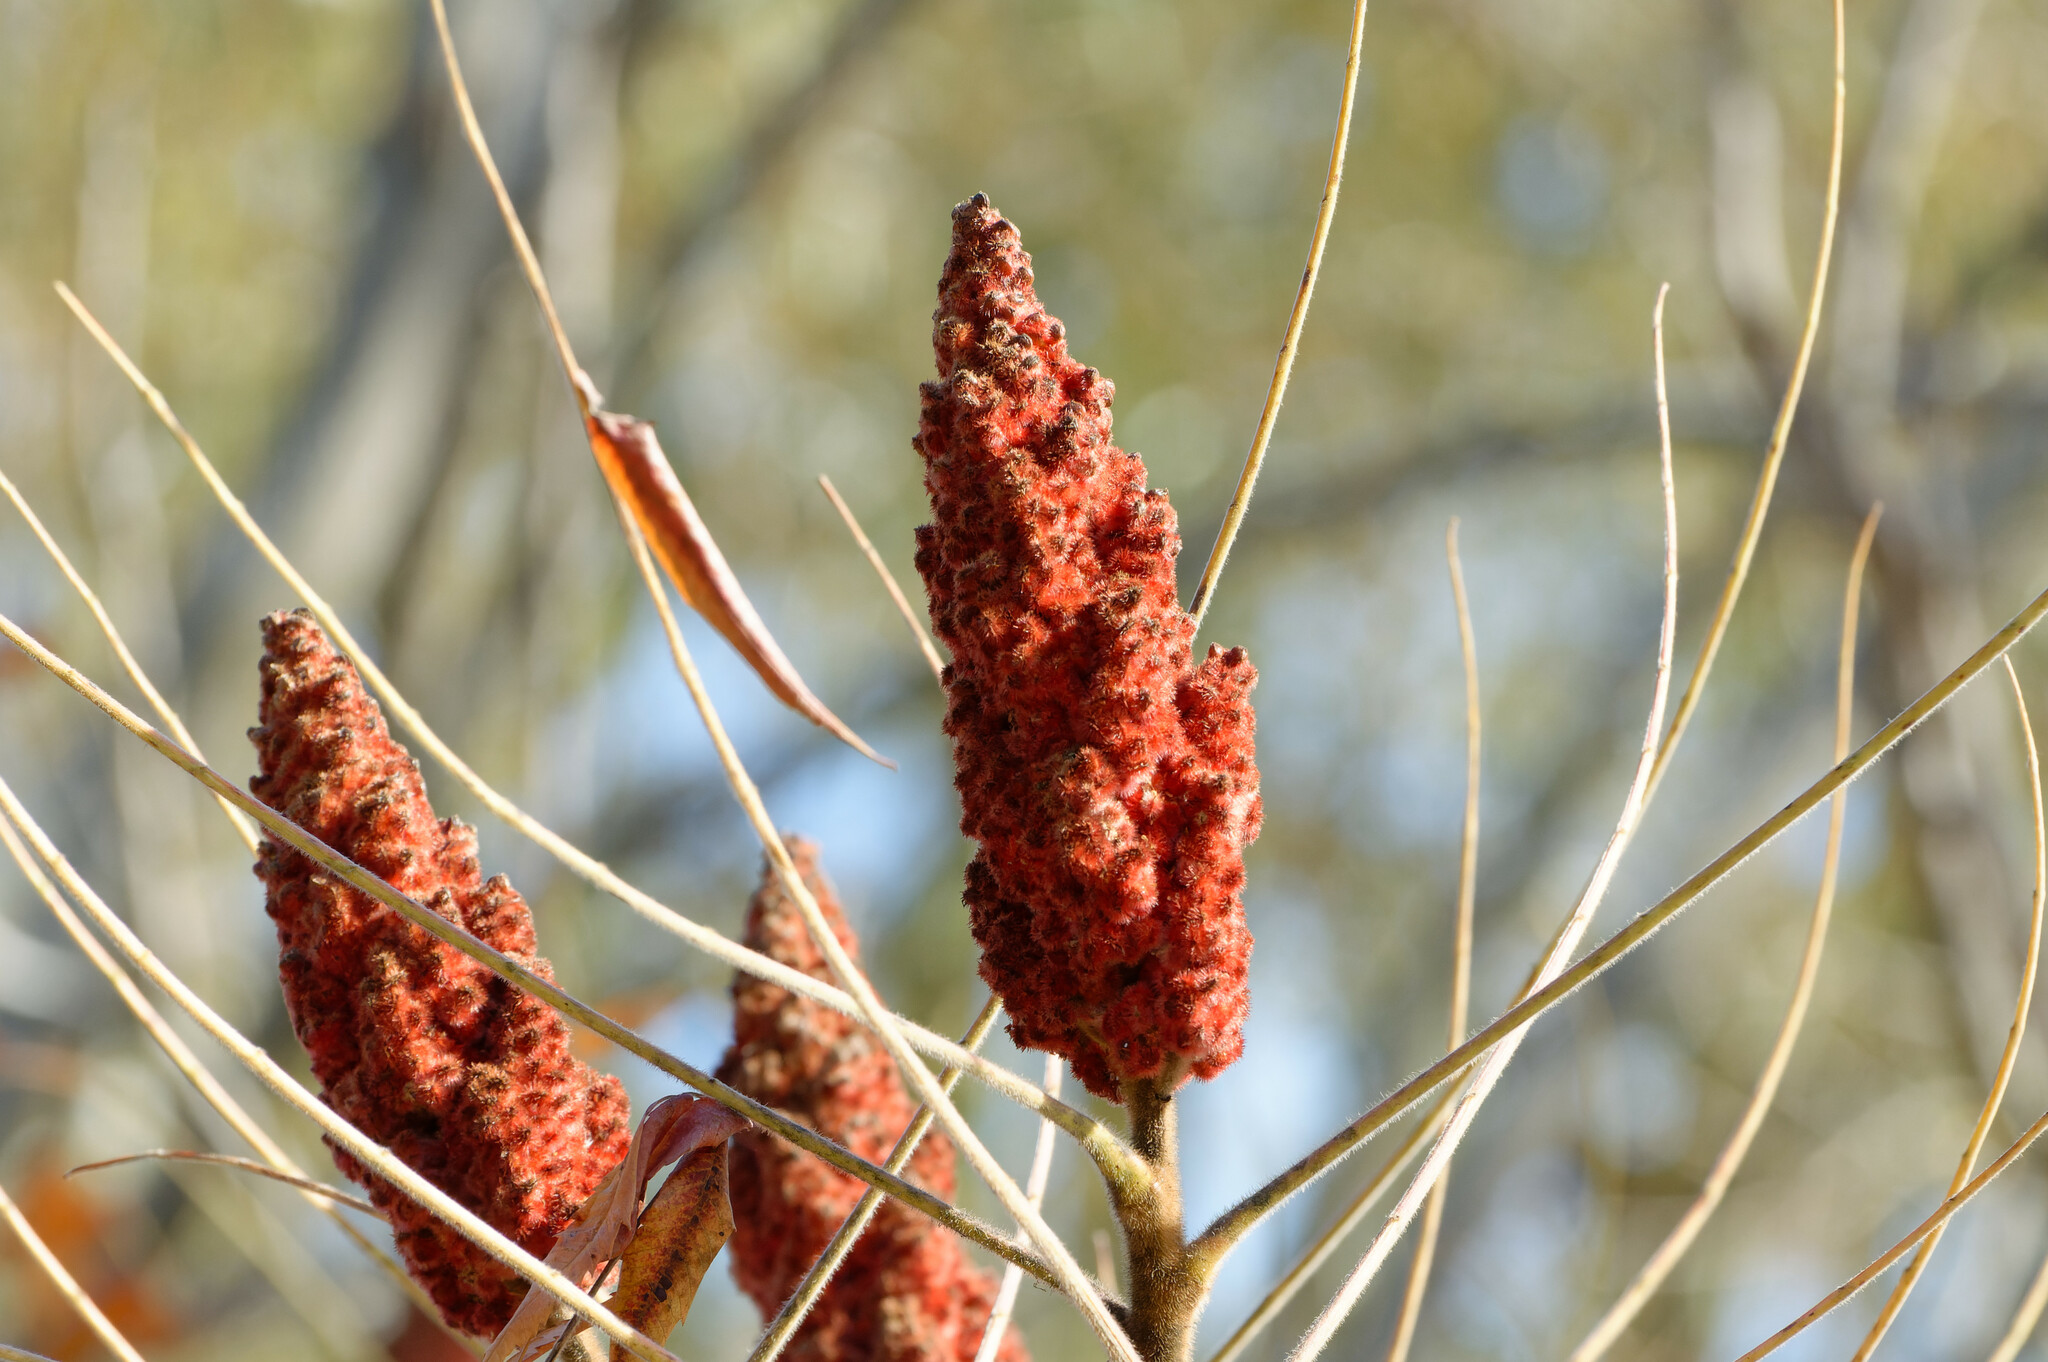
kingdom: Plantae
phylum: Tracheophyta
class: Magnoliopsida
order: Sapindales
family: Anacardiaceae
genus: Rhus
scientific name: Rhus typhina
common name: Staghorn sumac
